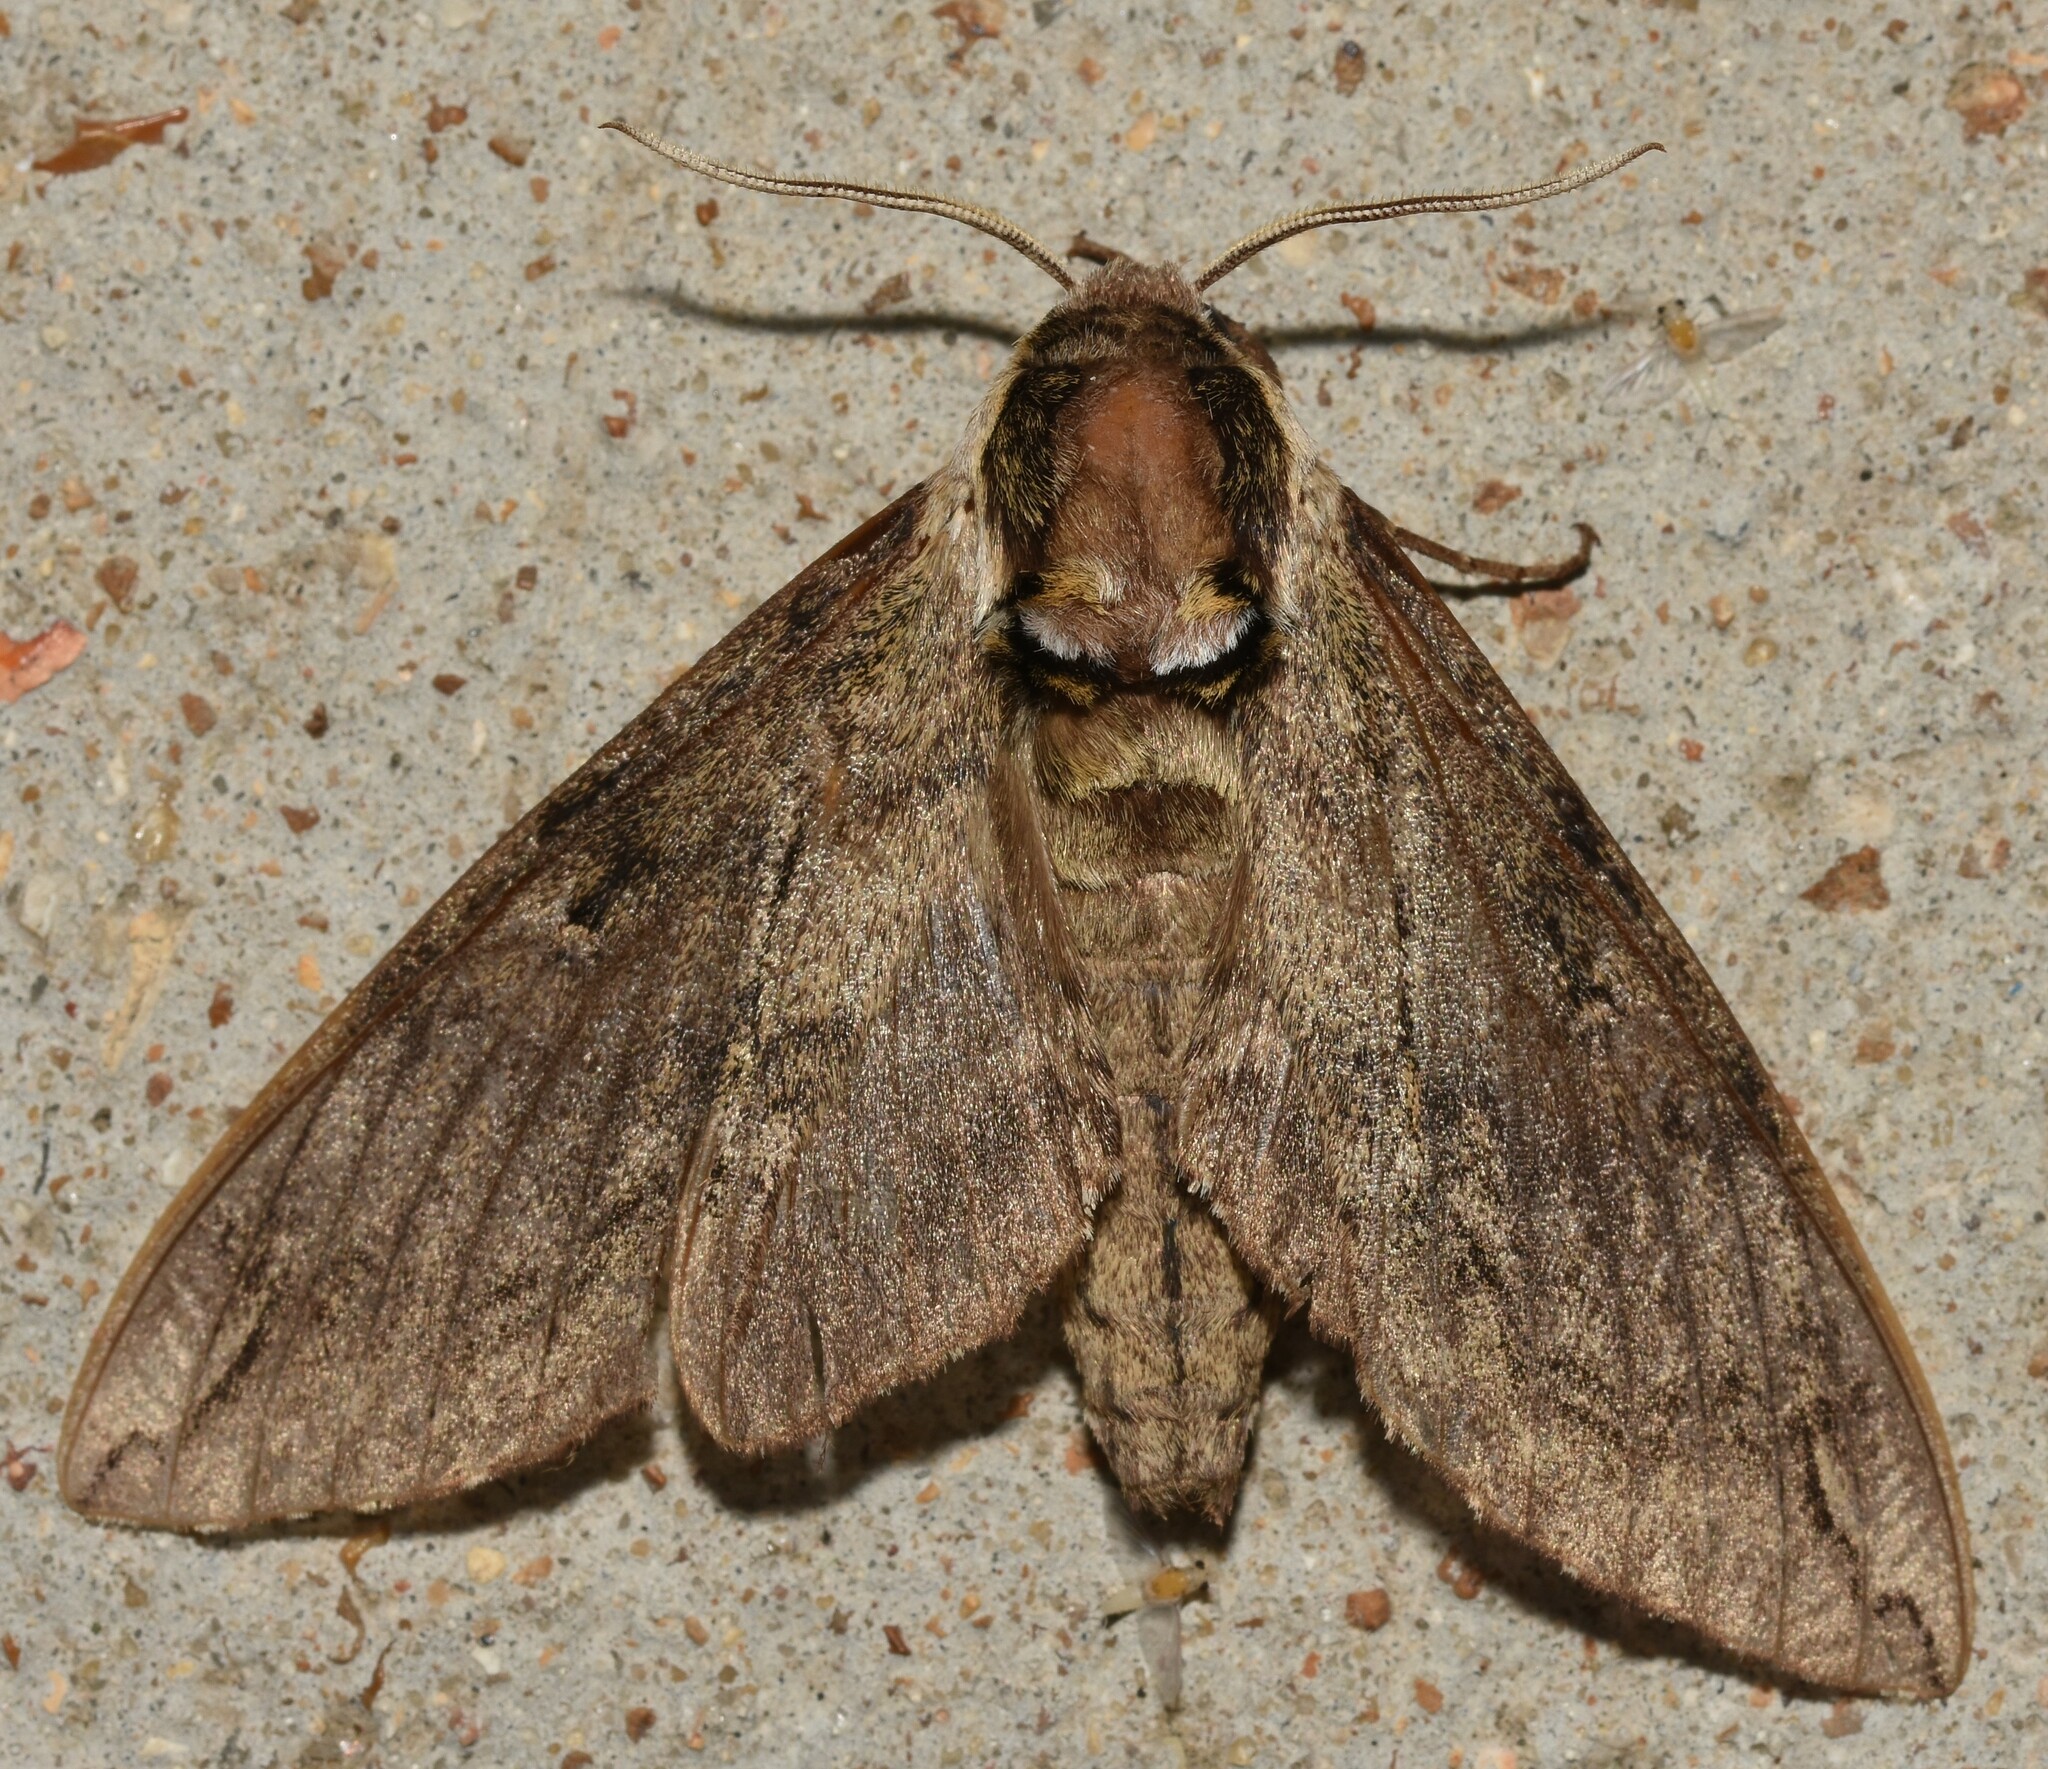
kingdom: Animalia
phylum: Arthropoda
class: Insecta
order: Lepidoptera
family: Sphingidae
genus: Ceratomia
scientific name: Ceratomia catalpae
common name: Catalpa hornworm
